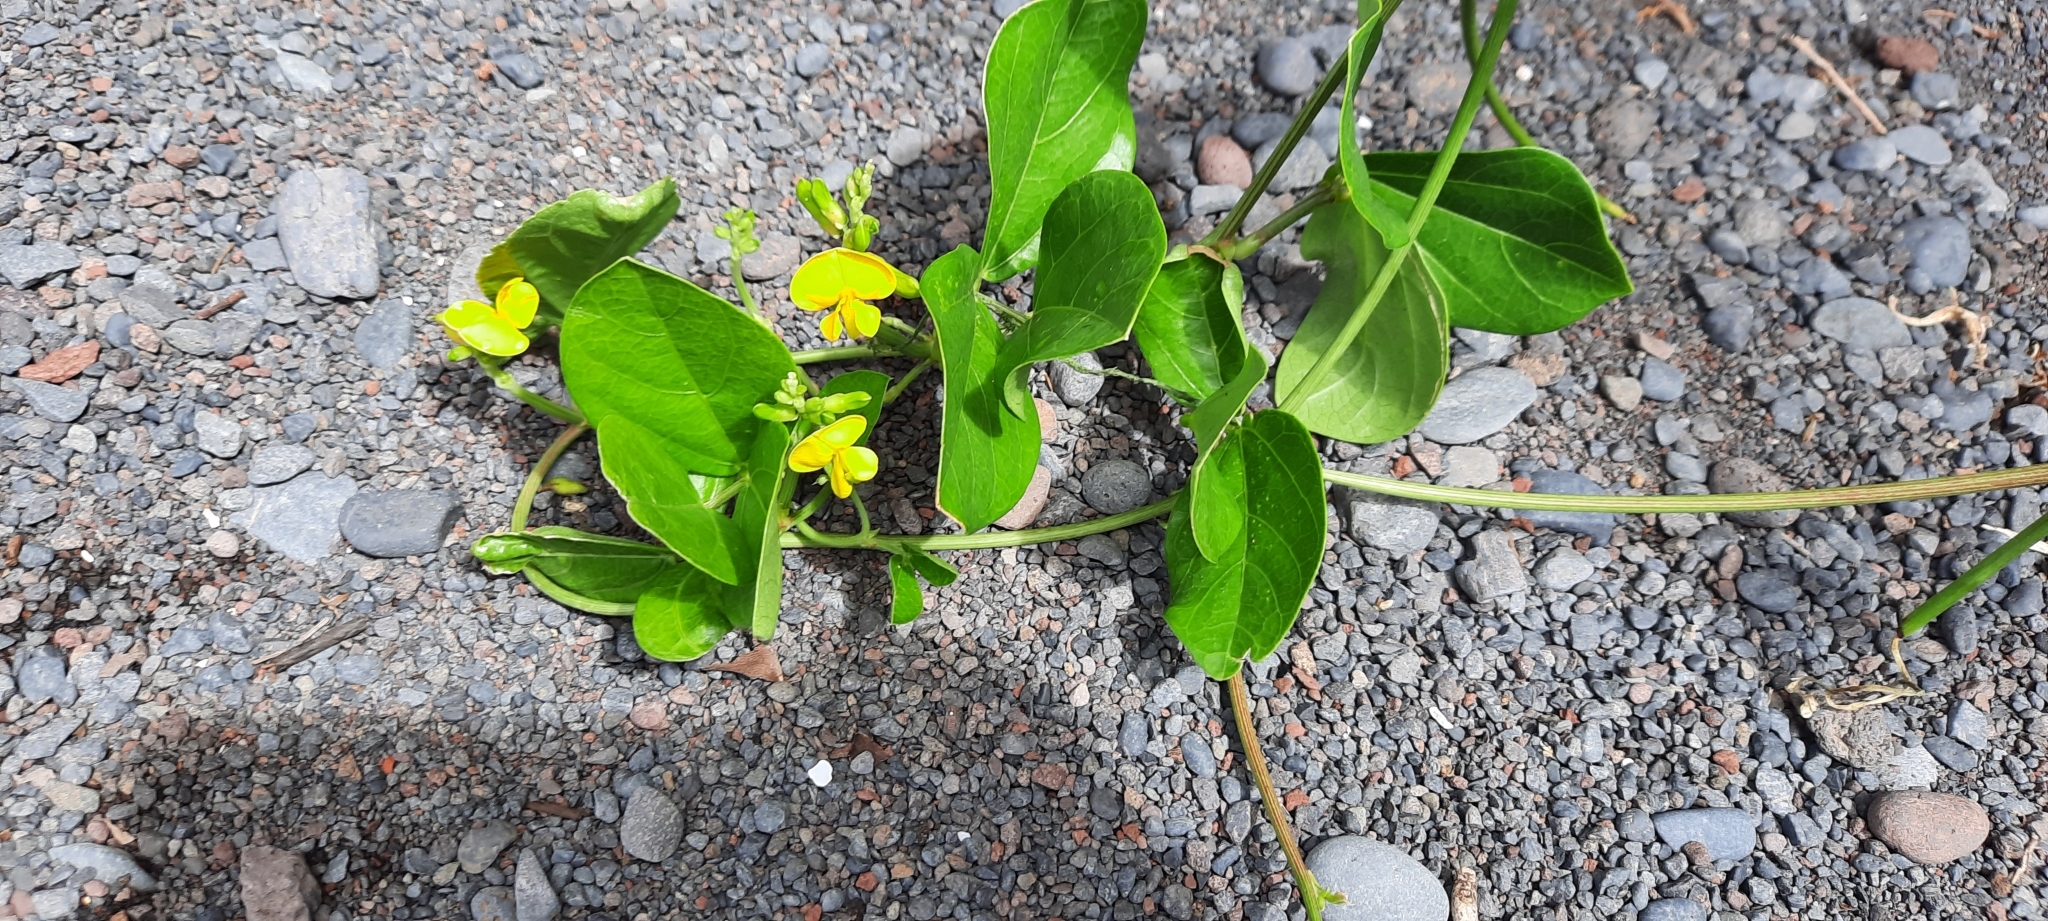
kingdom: Plantae
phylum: Tracheophyta
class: Magnoliopsida
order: Fabales
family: Fabaceae
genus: Vigna
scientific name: Vigna marina
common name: Dune-bean
